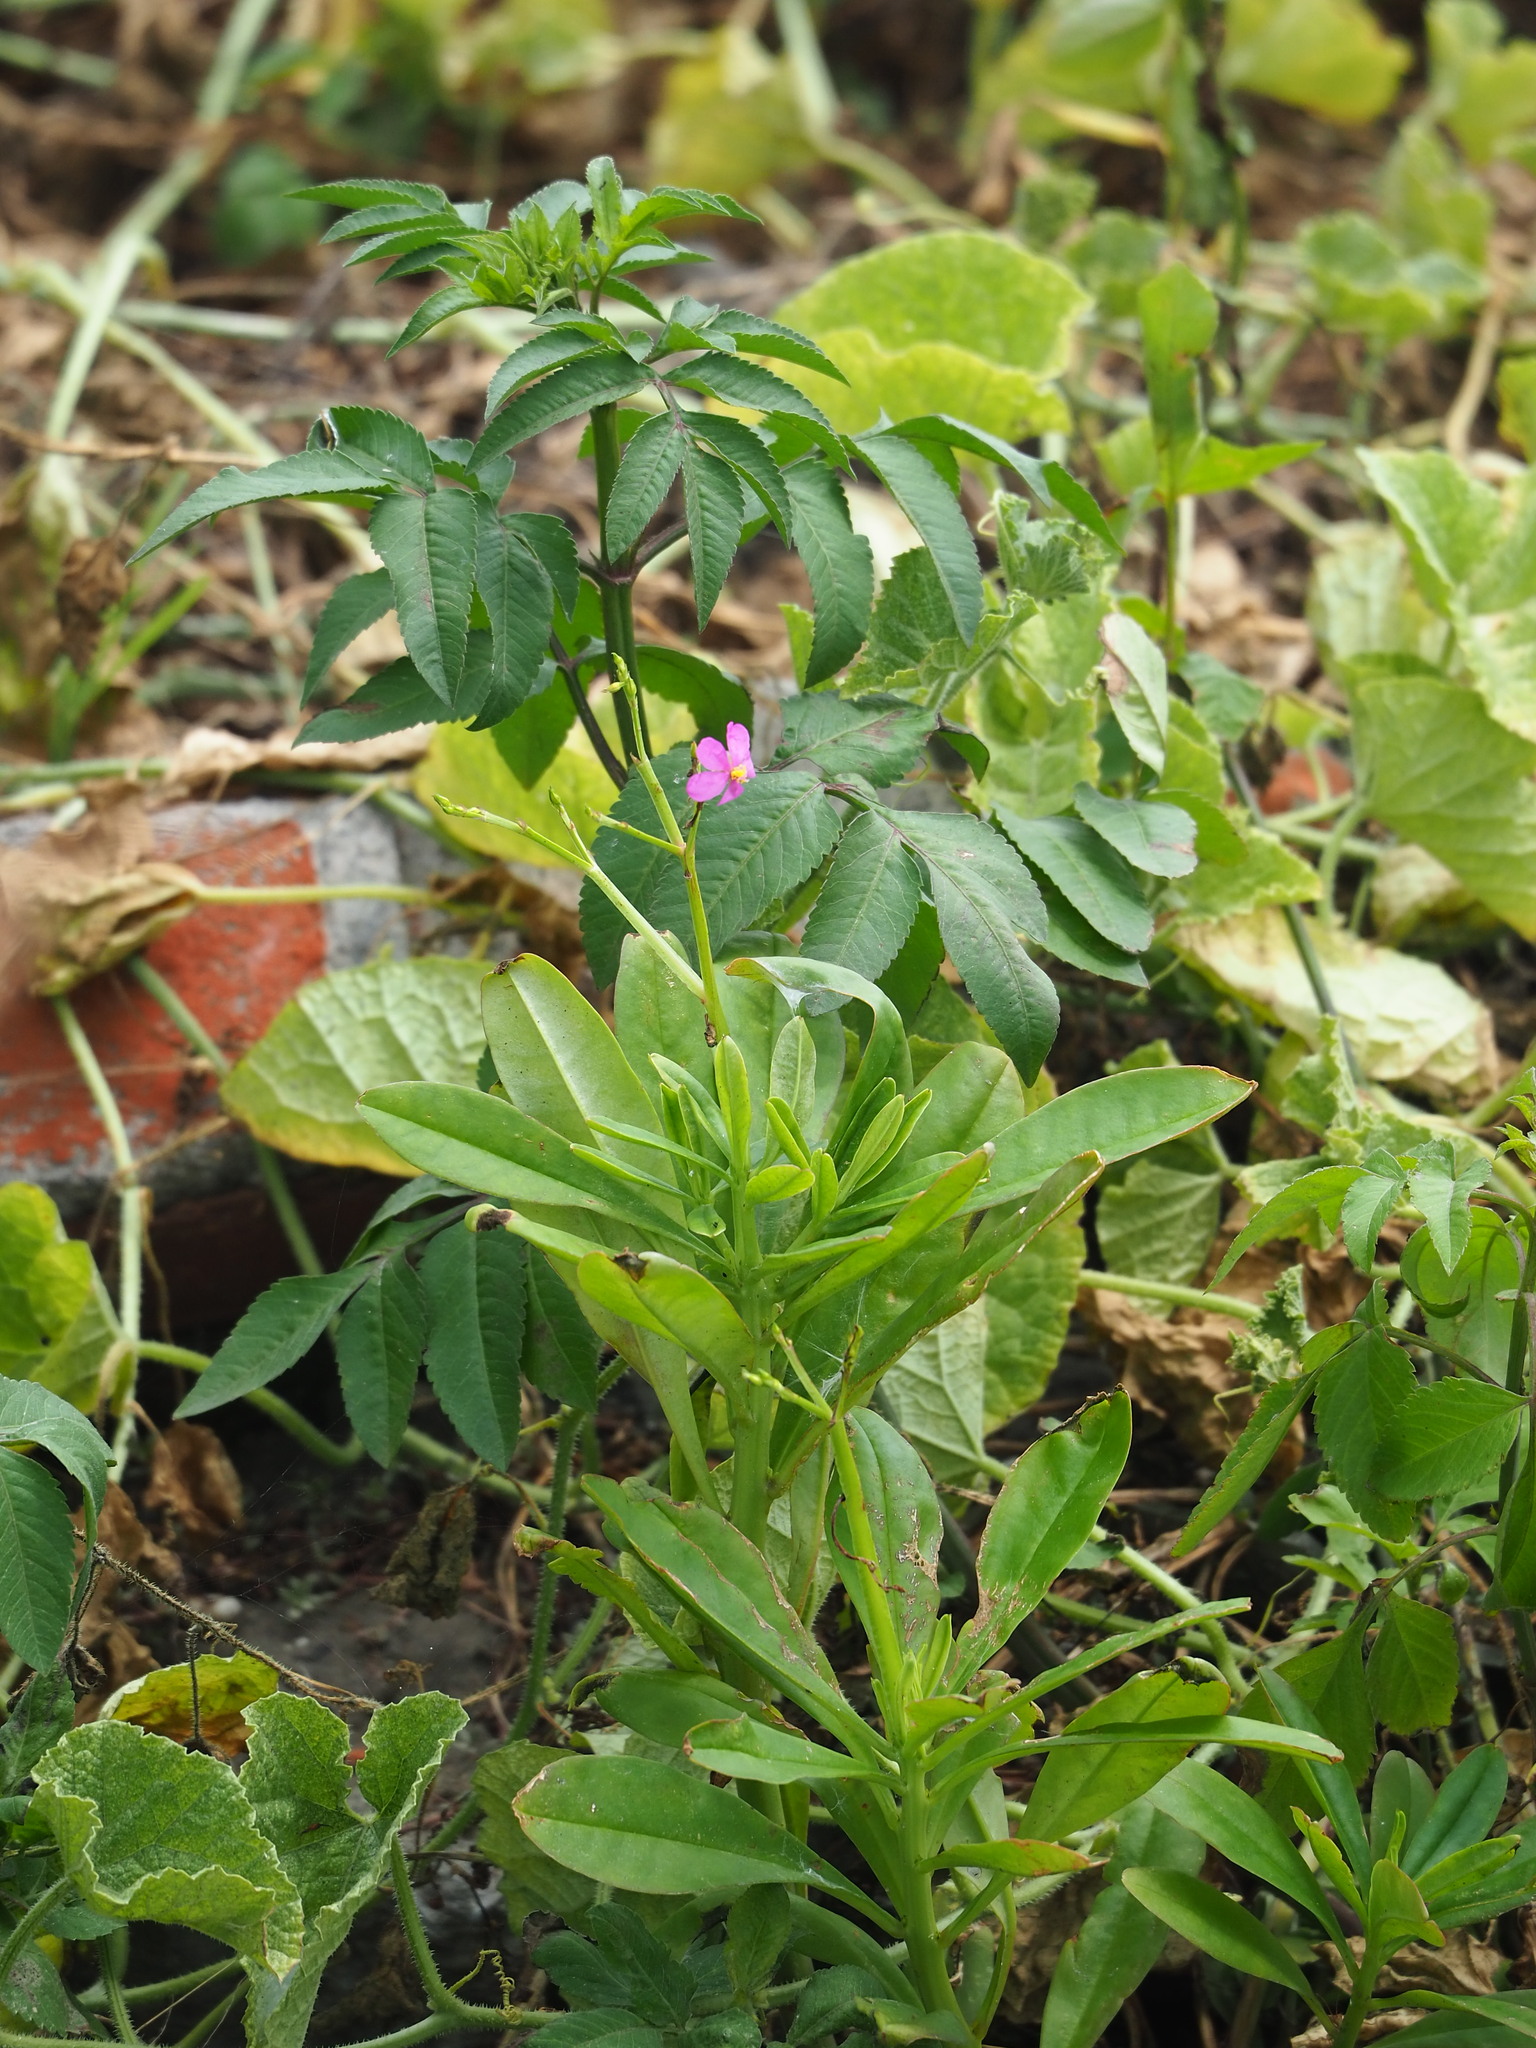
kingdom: Plantae
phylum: Tracheophyta
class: Magnoliopsida
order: Caryophyllales
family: Talinaceae
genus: Talinum
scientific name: Talinum fruticosum
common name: Verdolaga-francesa
